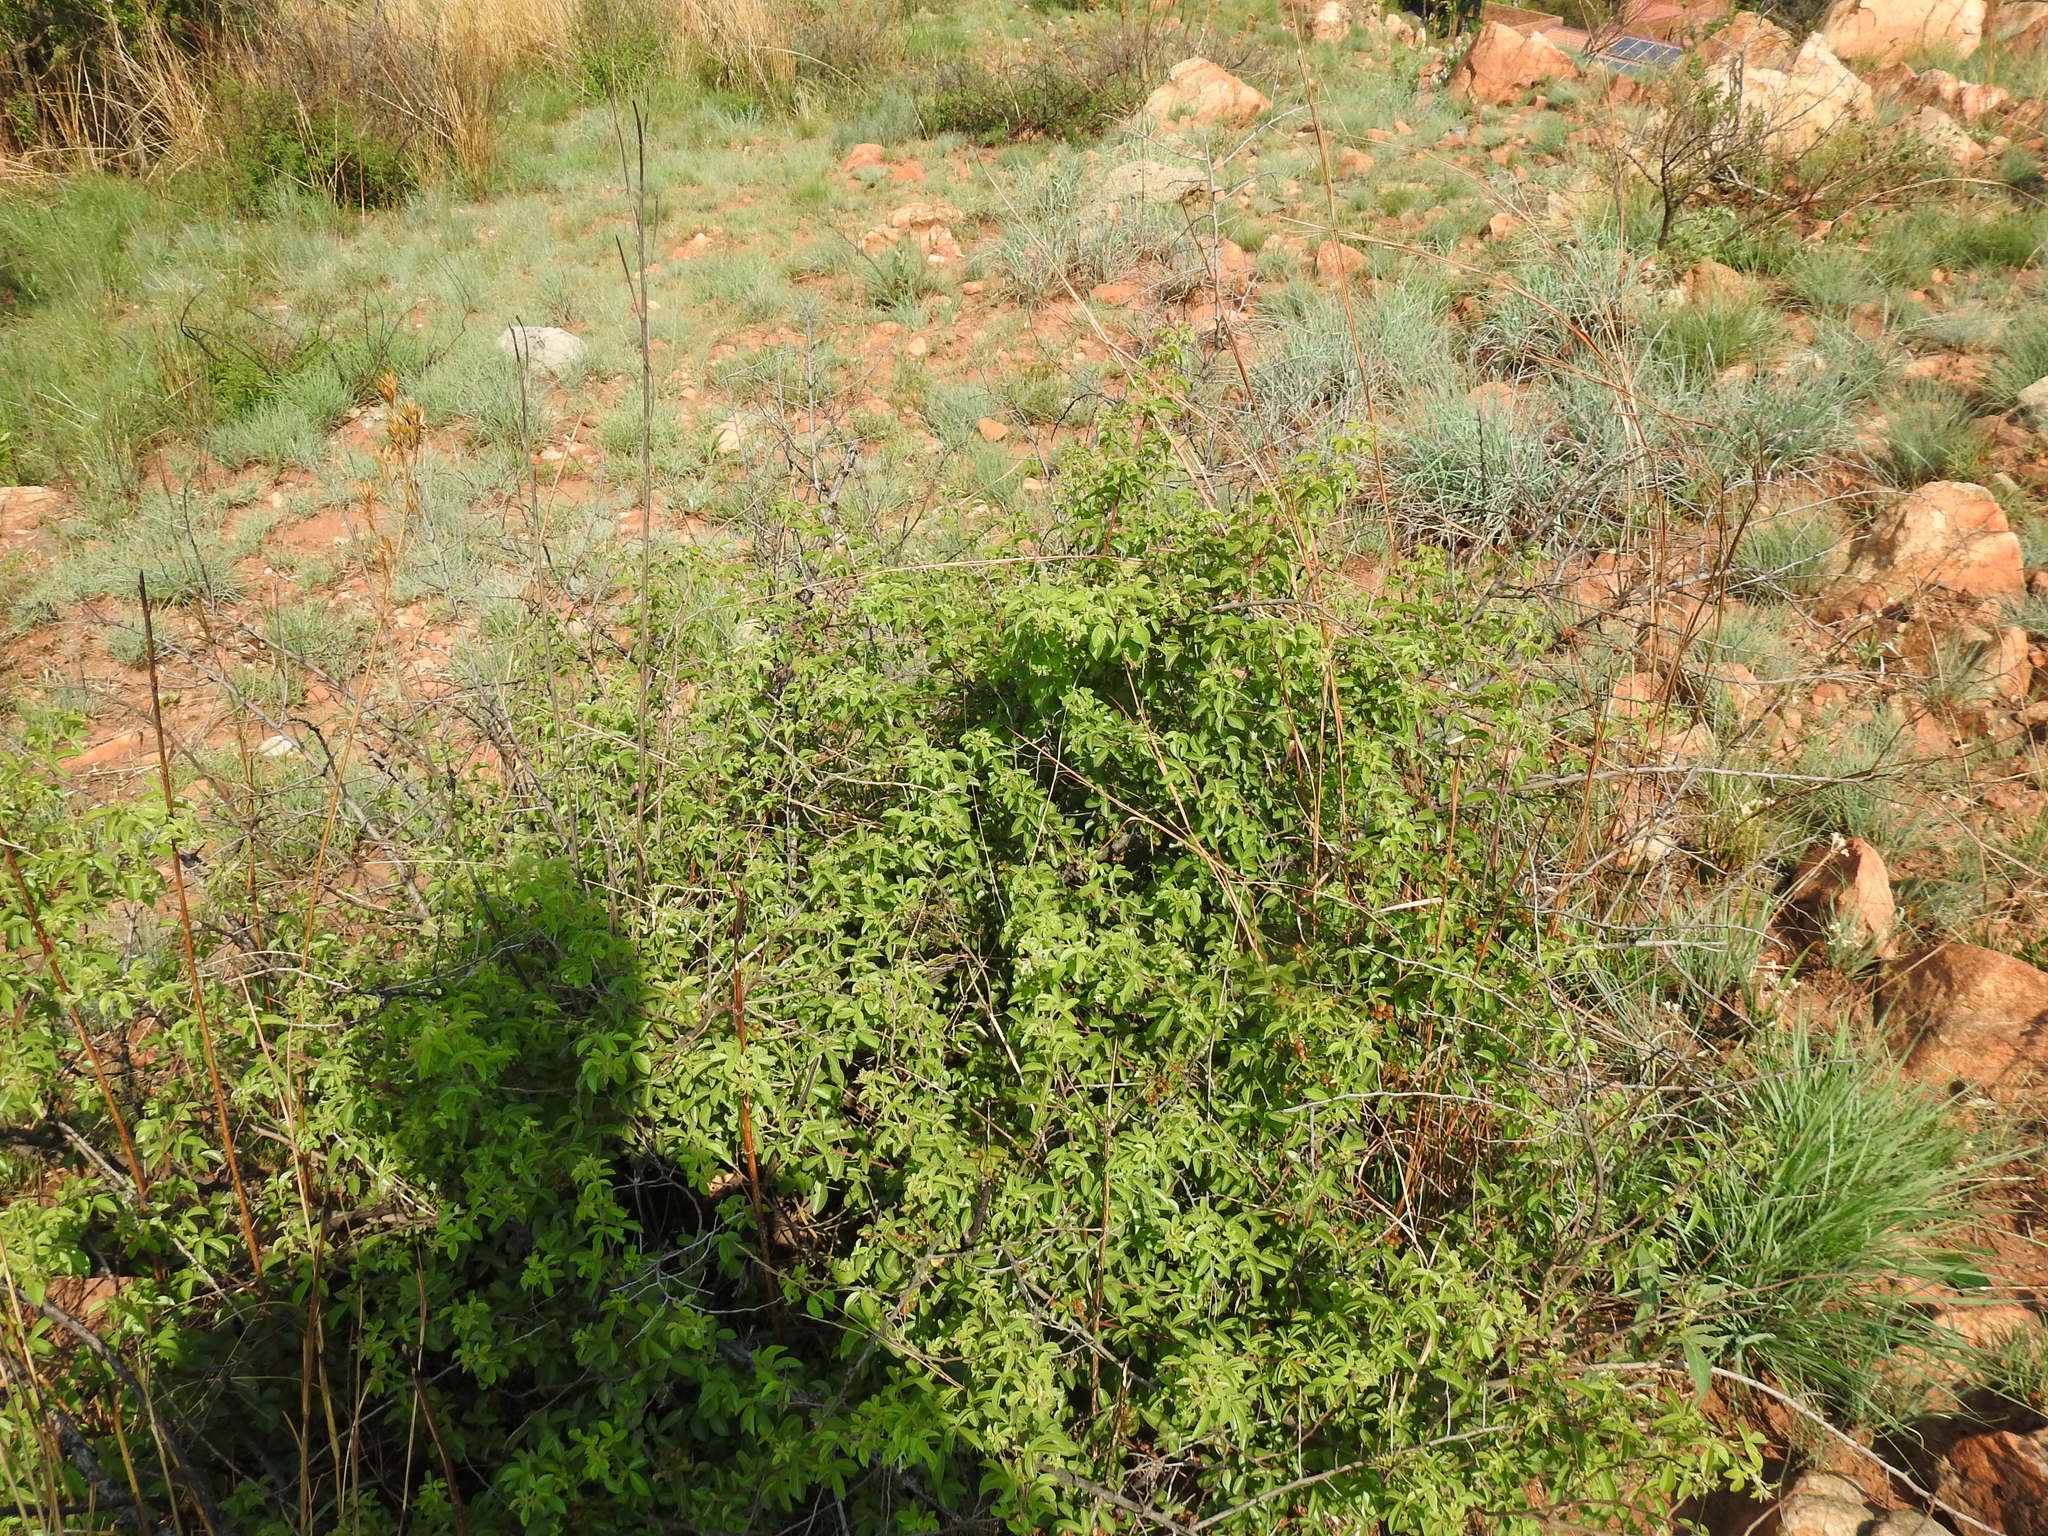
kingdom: Plantae
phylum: Tracheophyta
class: Magnoliopsida
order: Sapindales
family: Anacardiaceae
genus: Searsia
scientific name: Searsia rigida
